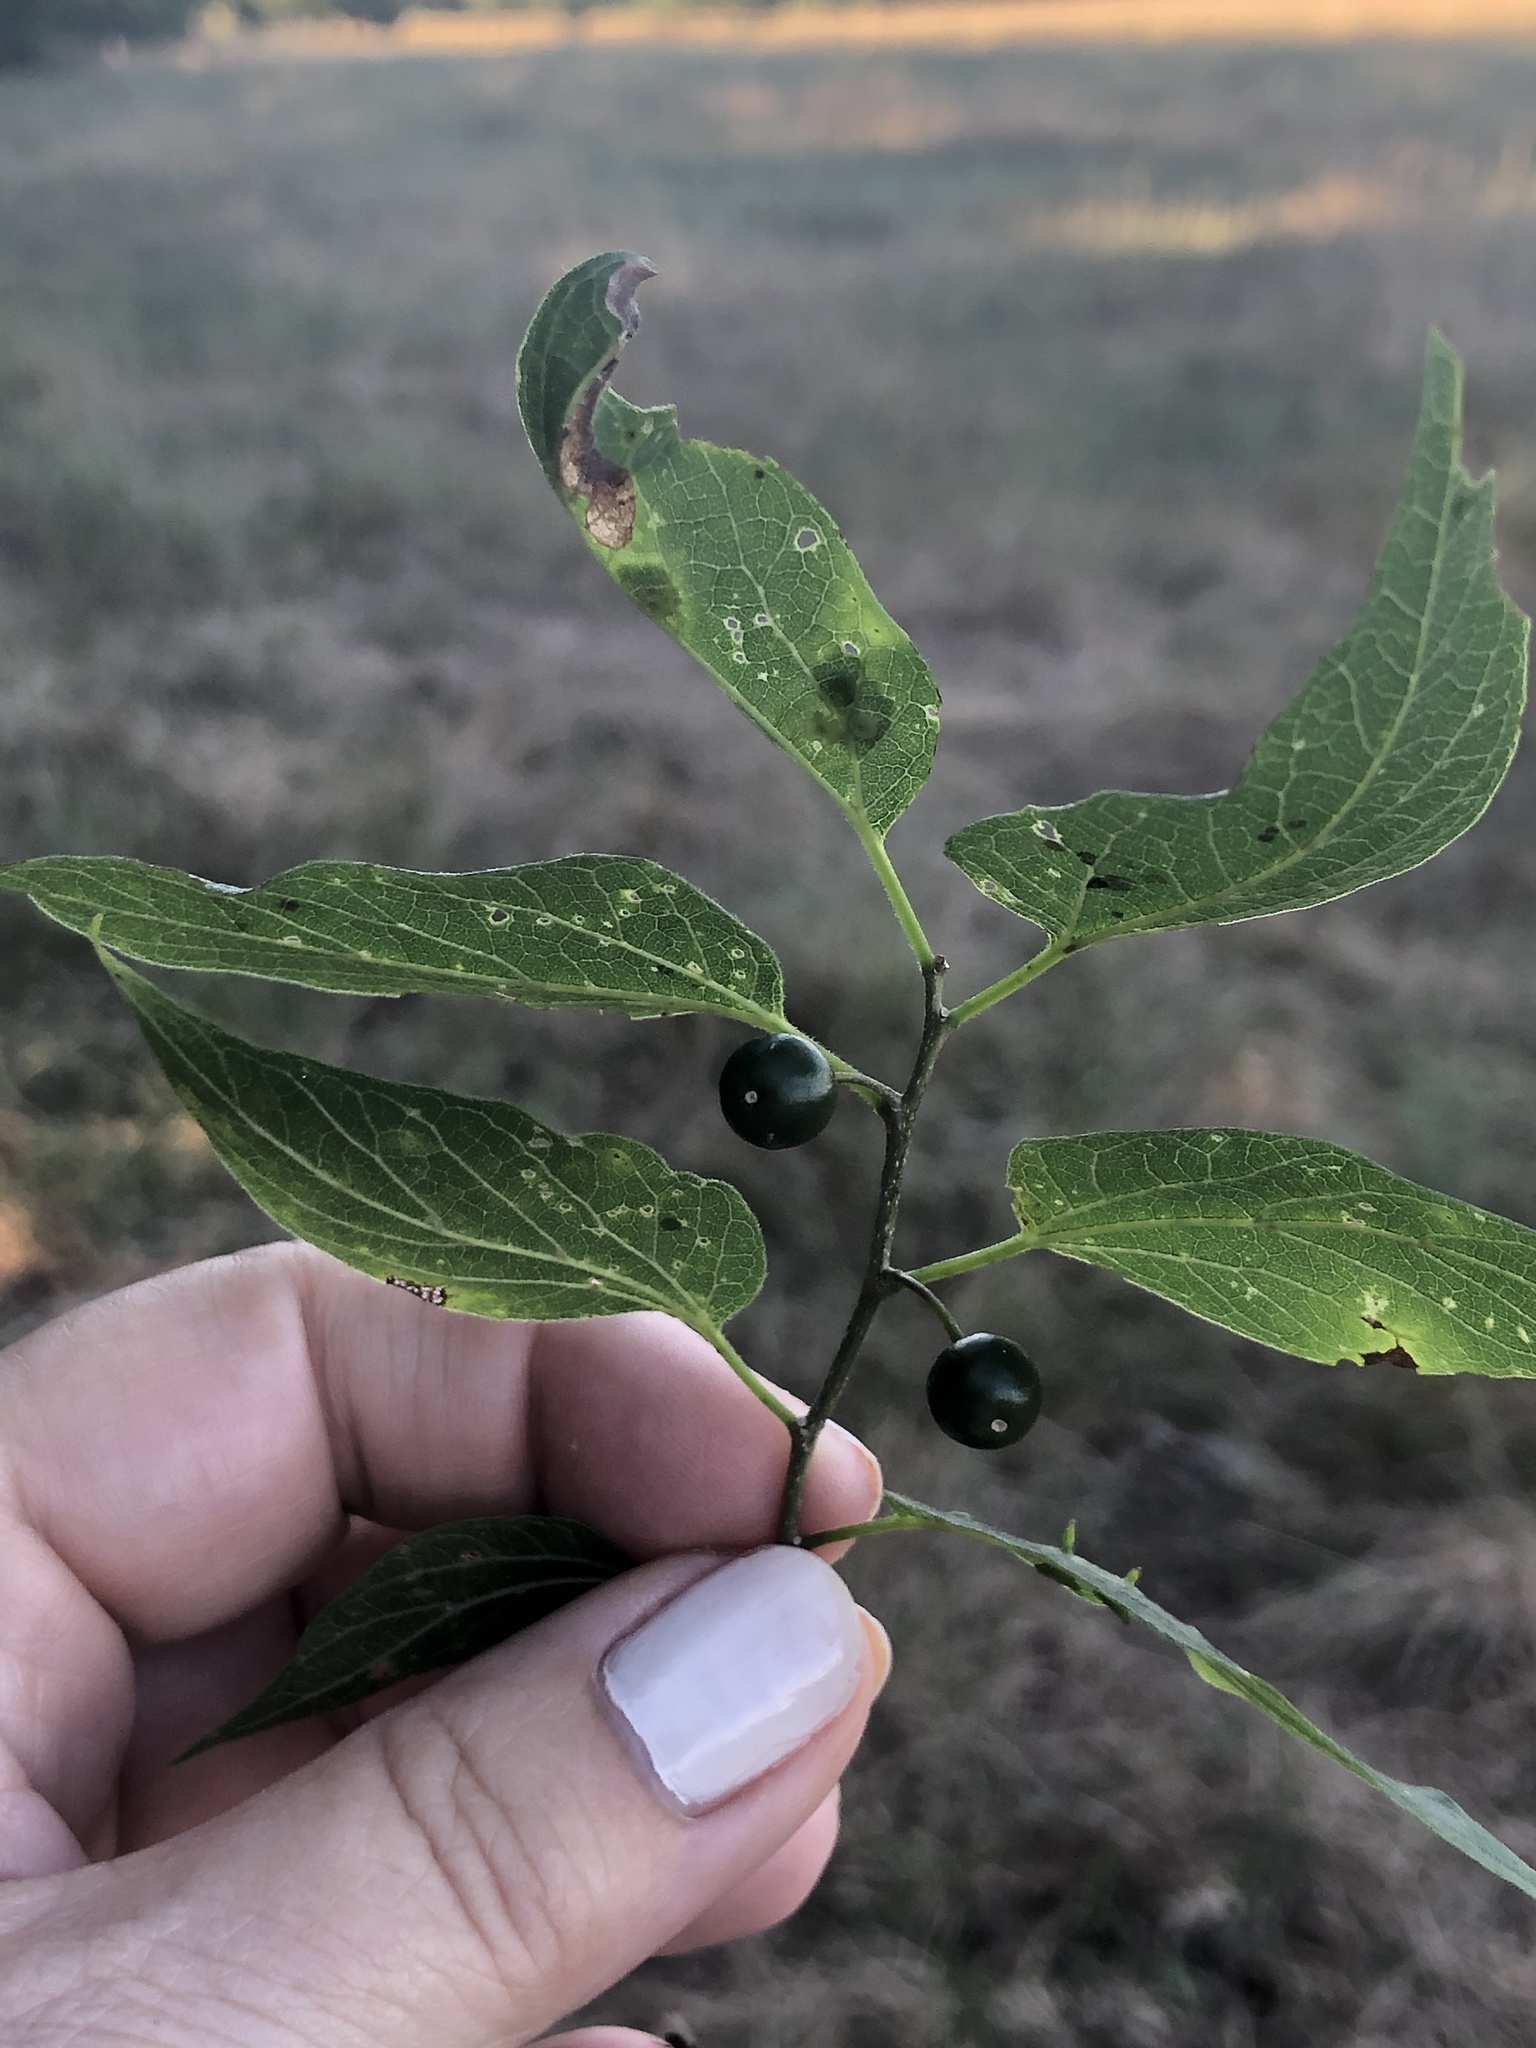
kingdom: Plantae
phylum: Tracheophyta
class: Magnoliopsida
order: Rosales
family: Cannabaceae
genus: Celtis
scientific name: Celtis laevigata
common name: Sugarberry
